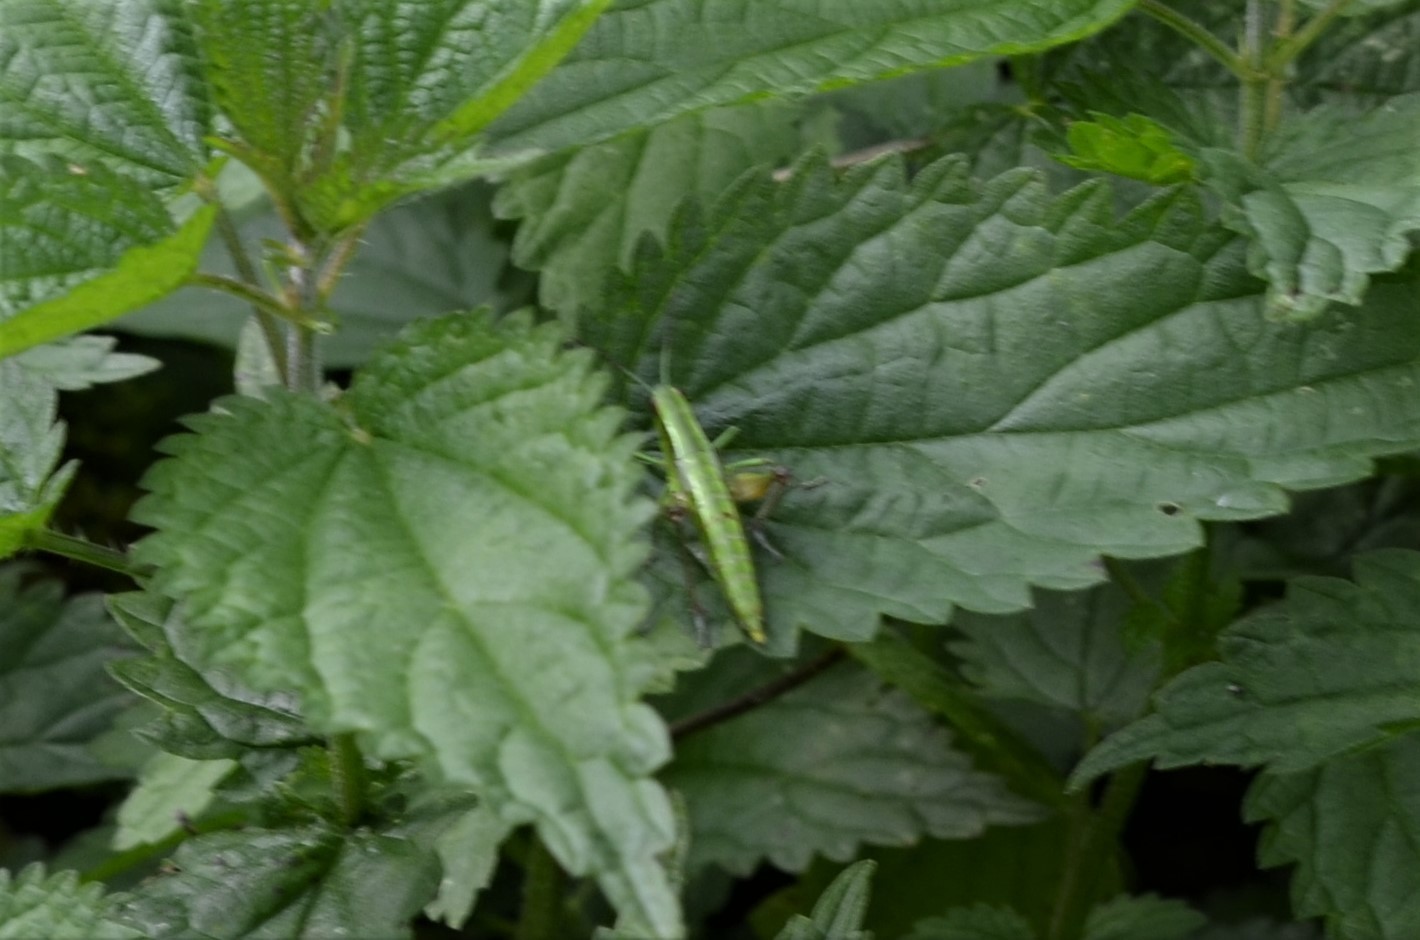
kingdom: Animalia
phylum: Arthropoda
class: Insecta
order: Orthoptera
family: Acrididae
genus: Euthystira
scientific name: Euthystira brachyptera
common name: Small gold grasshopper
